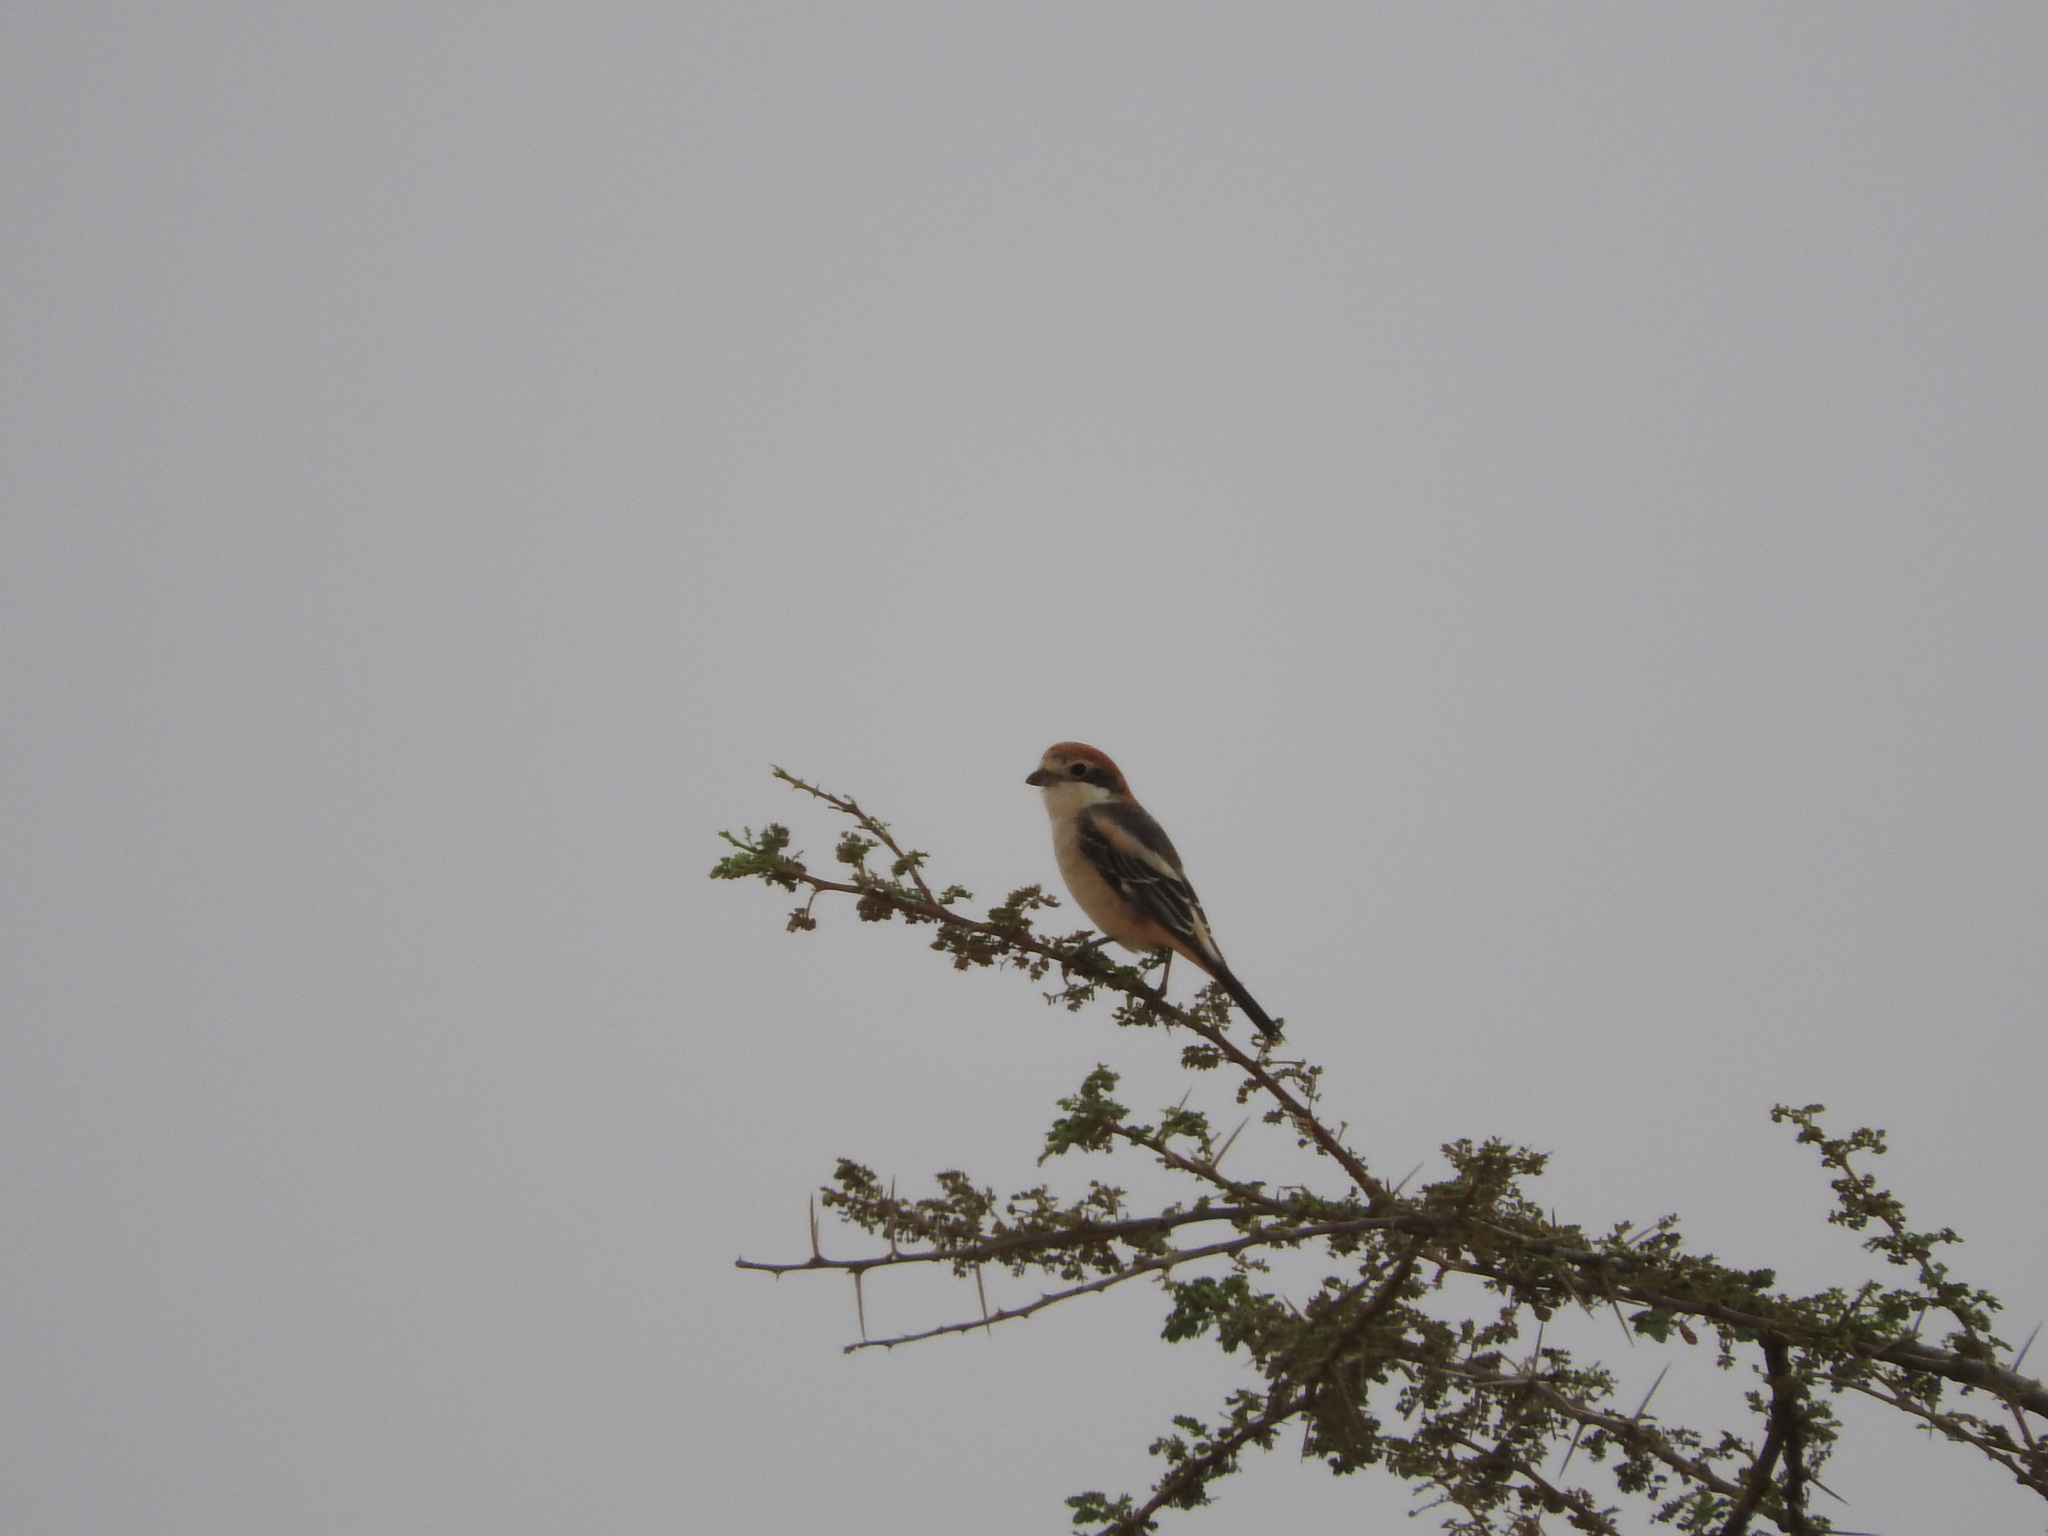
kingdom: Animalia
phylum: Chordata
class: Aves
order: Passeriformes
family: Laniidae
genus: Lanius
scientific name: Lanius senator
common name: Woodchat shrike
